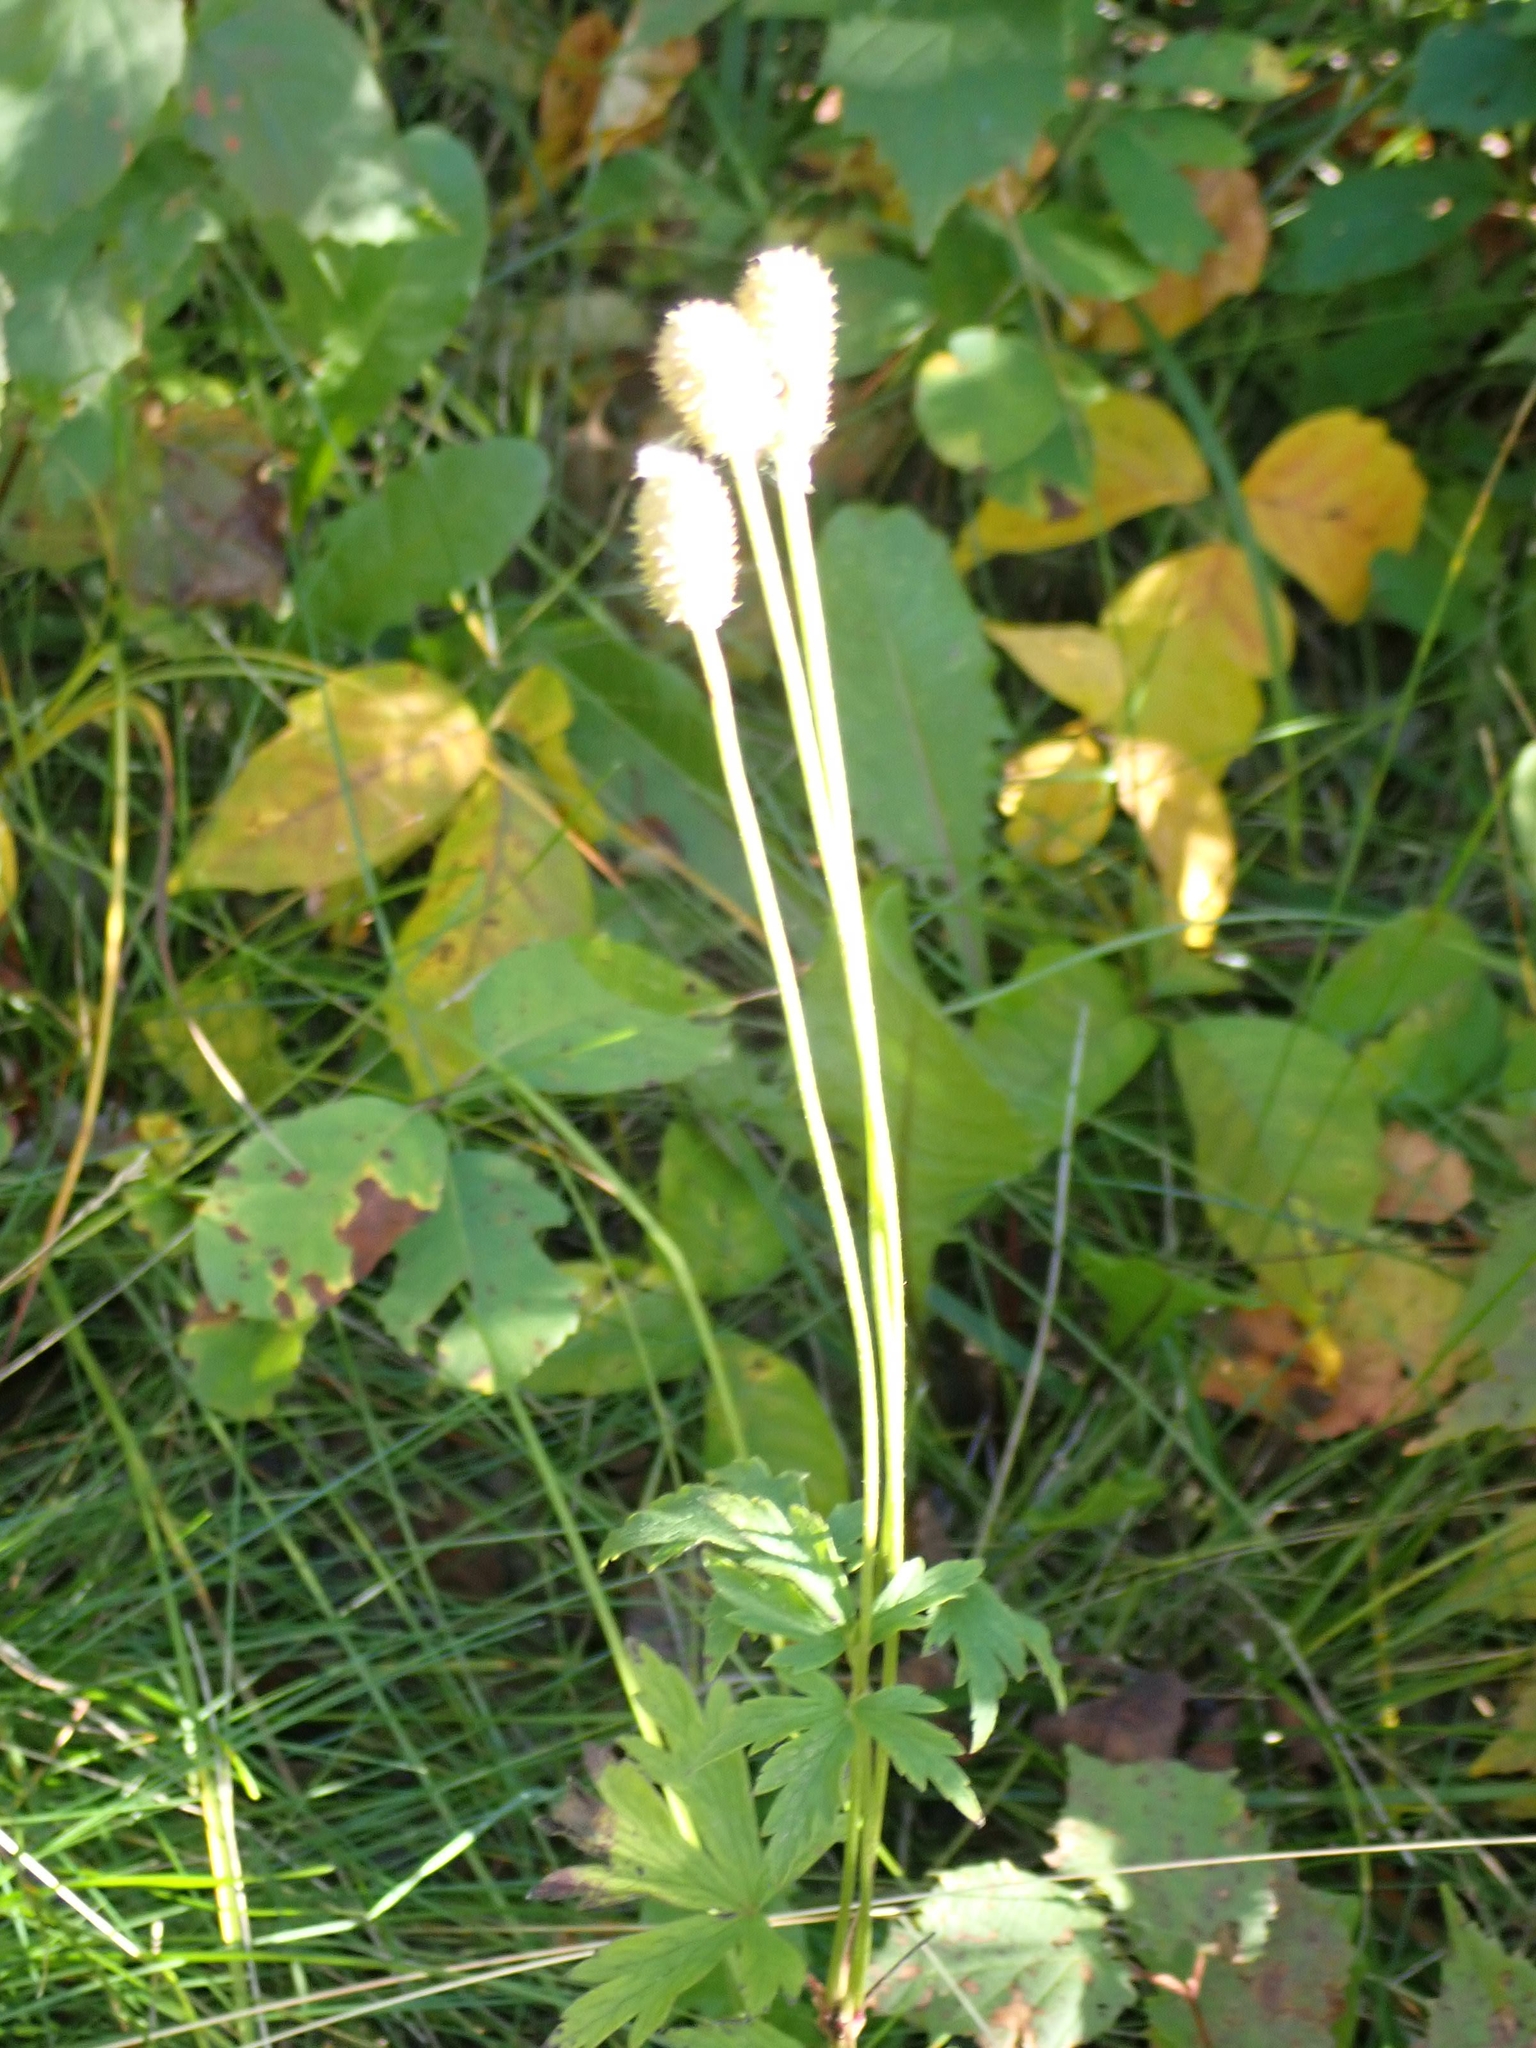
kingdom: Plantae
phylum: Tracheophyta
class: Magnoliopsida
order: Ranunculales
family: Ranunculaceae
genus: Anemone
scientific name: Anemone virginiana
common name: Tall anemone
